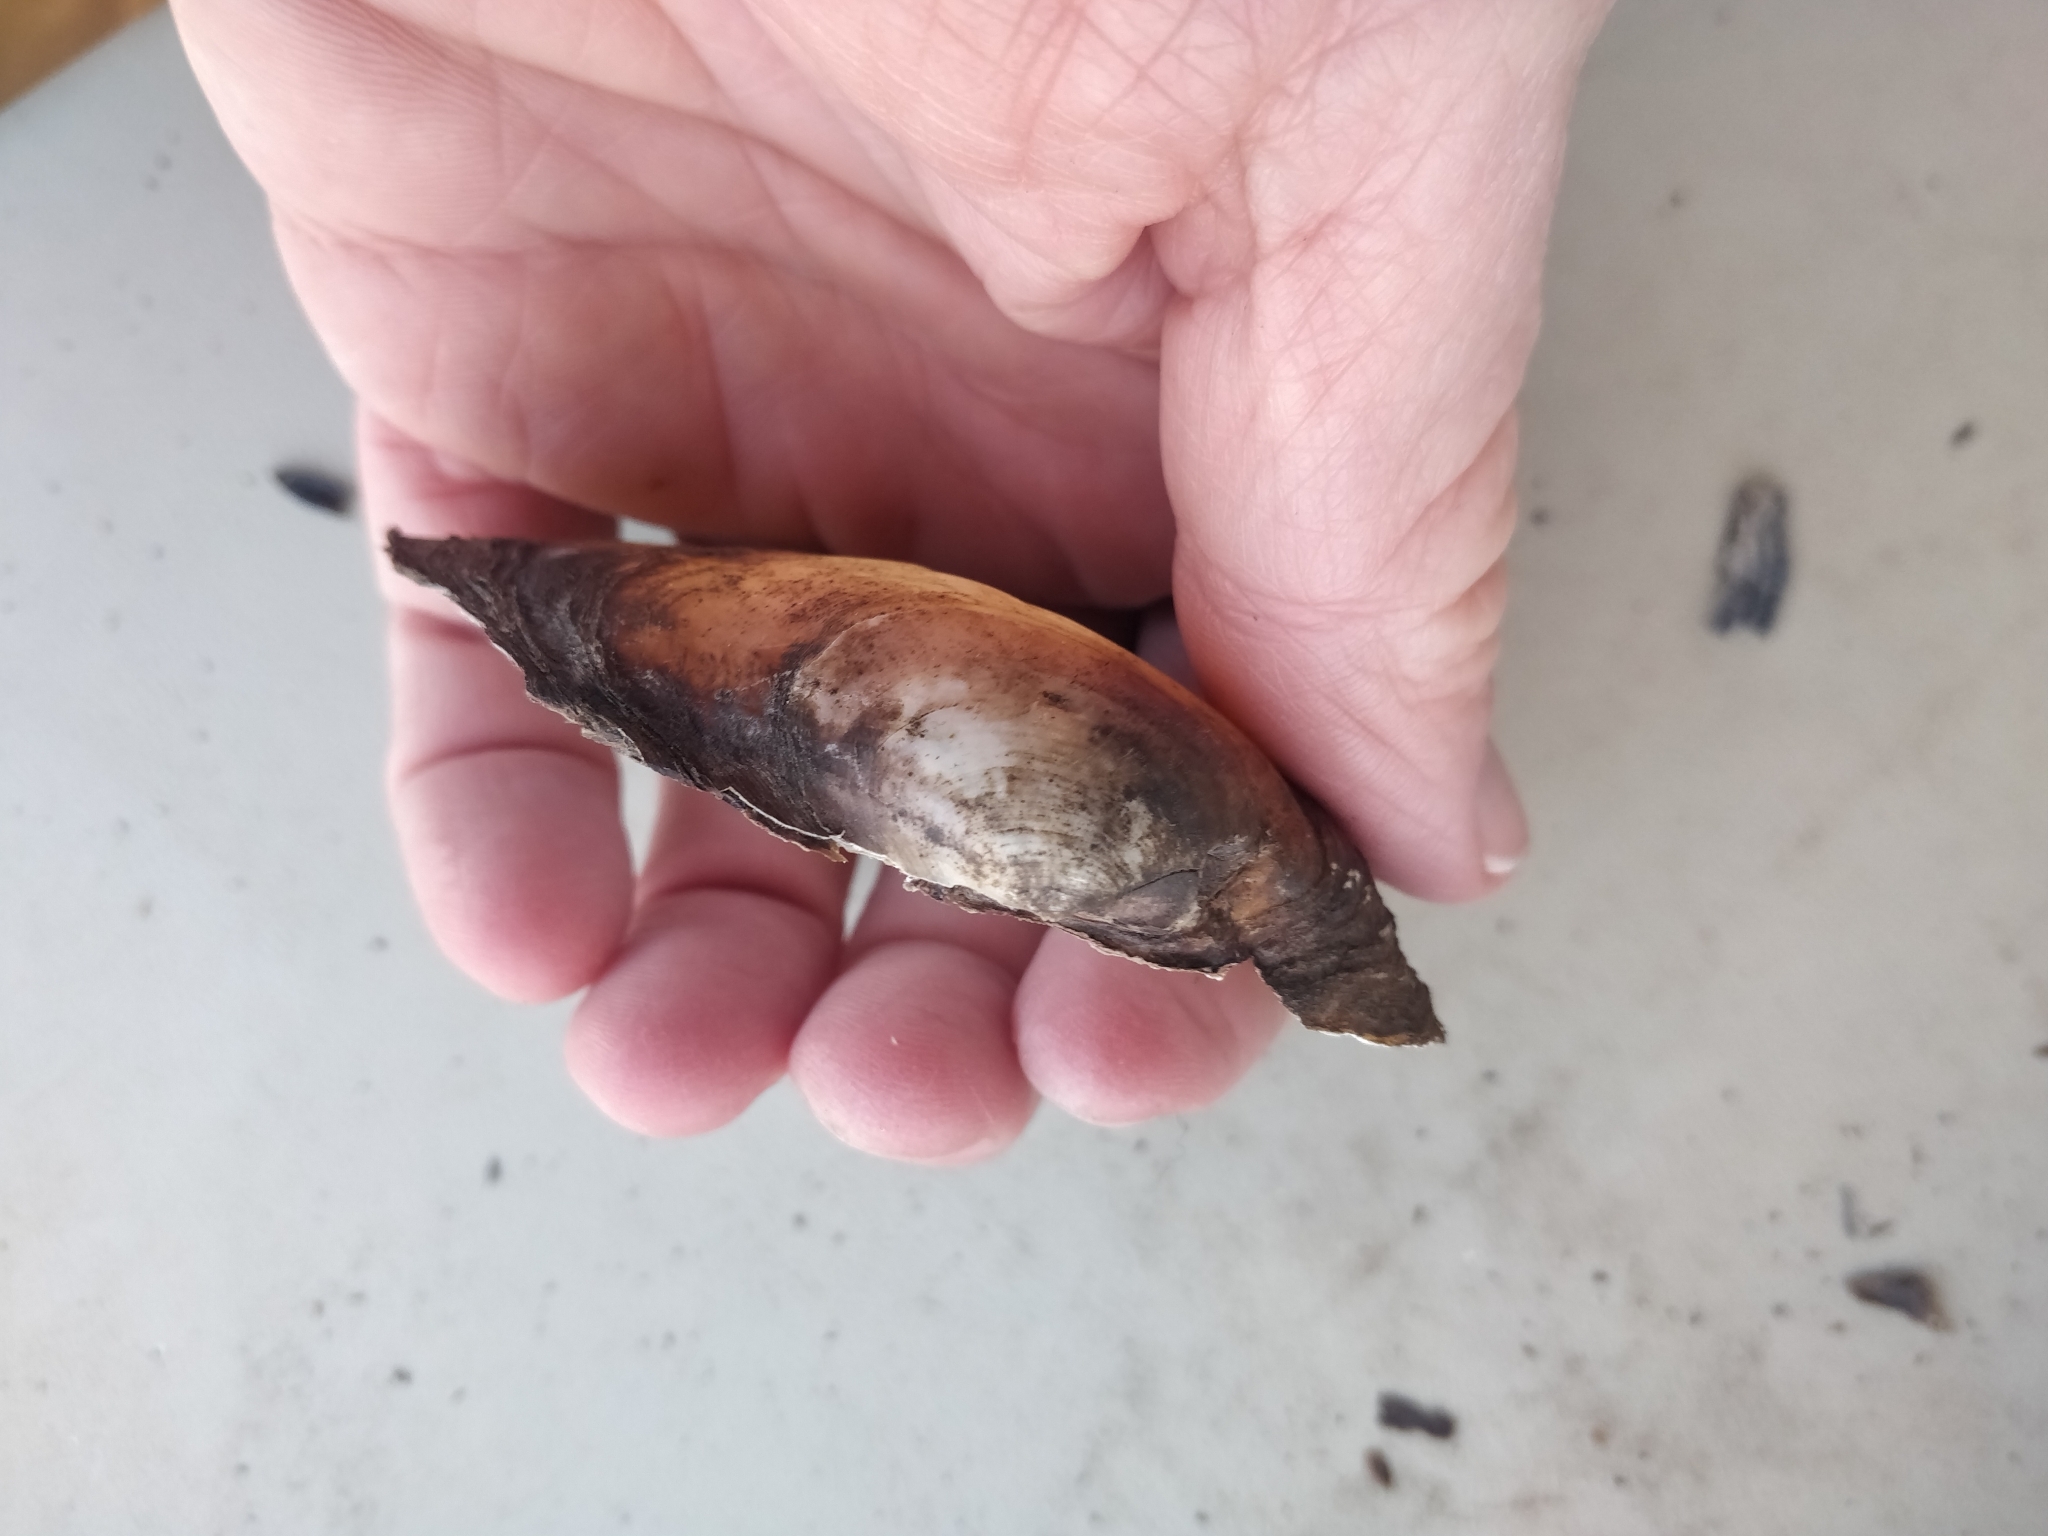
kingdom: Animalia
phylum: Mollusca
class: Bivalvia
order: Unionida
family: Unionidae
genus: Pyganodon
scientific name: Pyganodon grandis
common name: Giant floater
